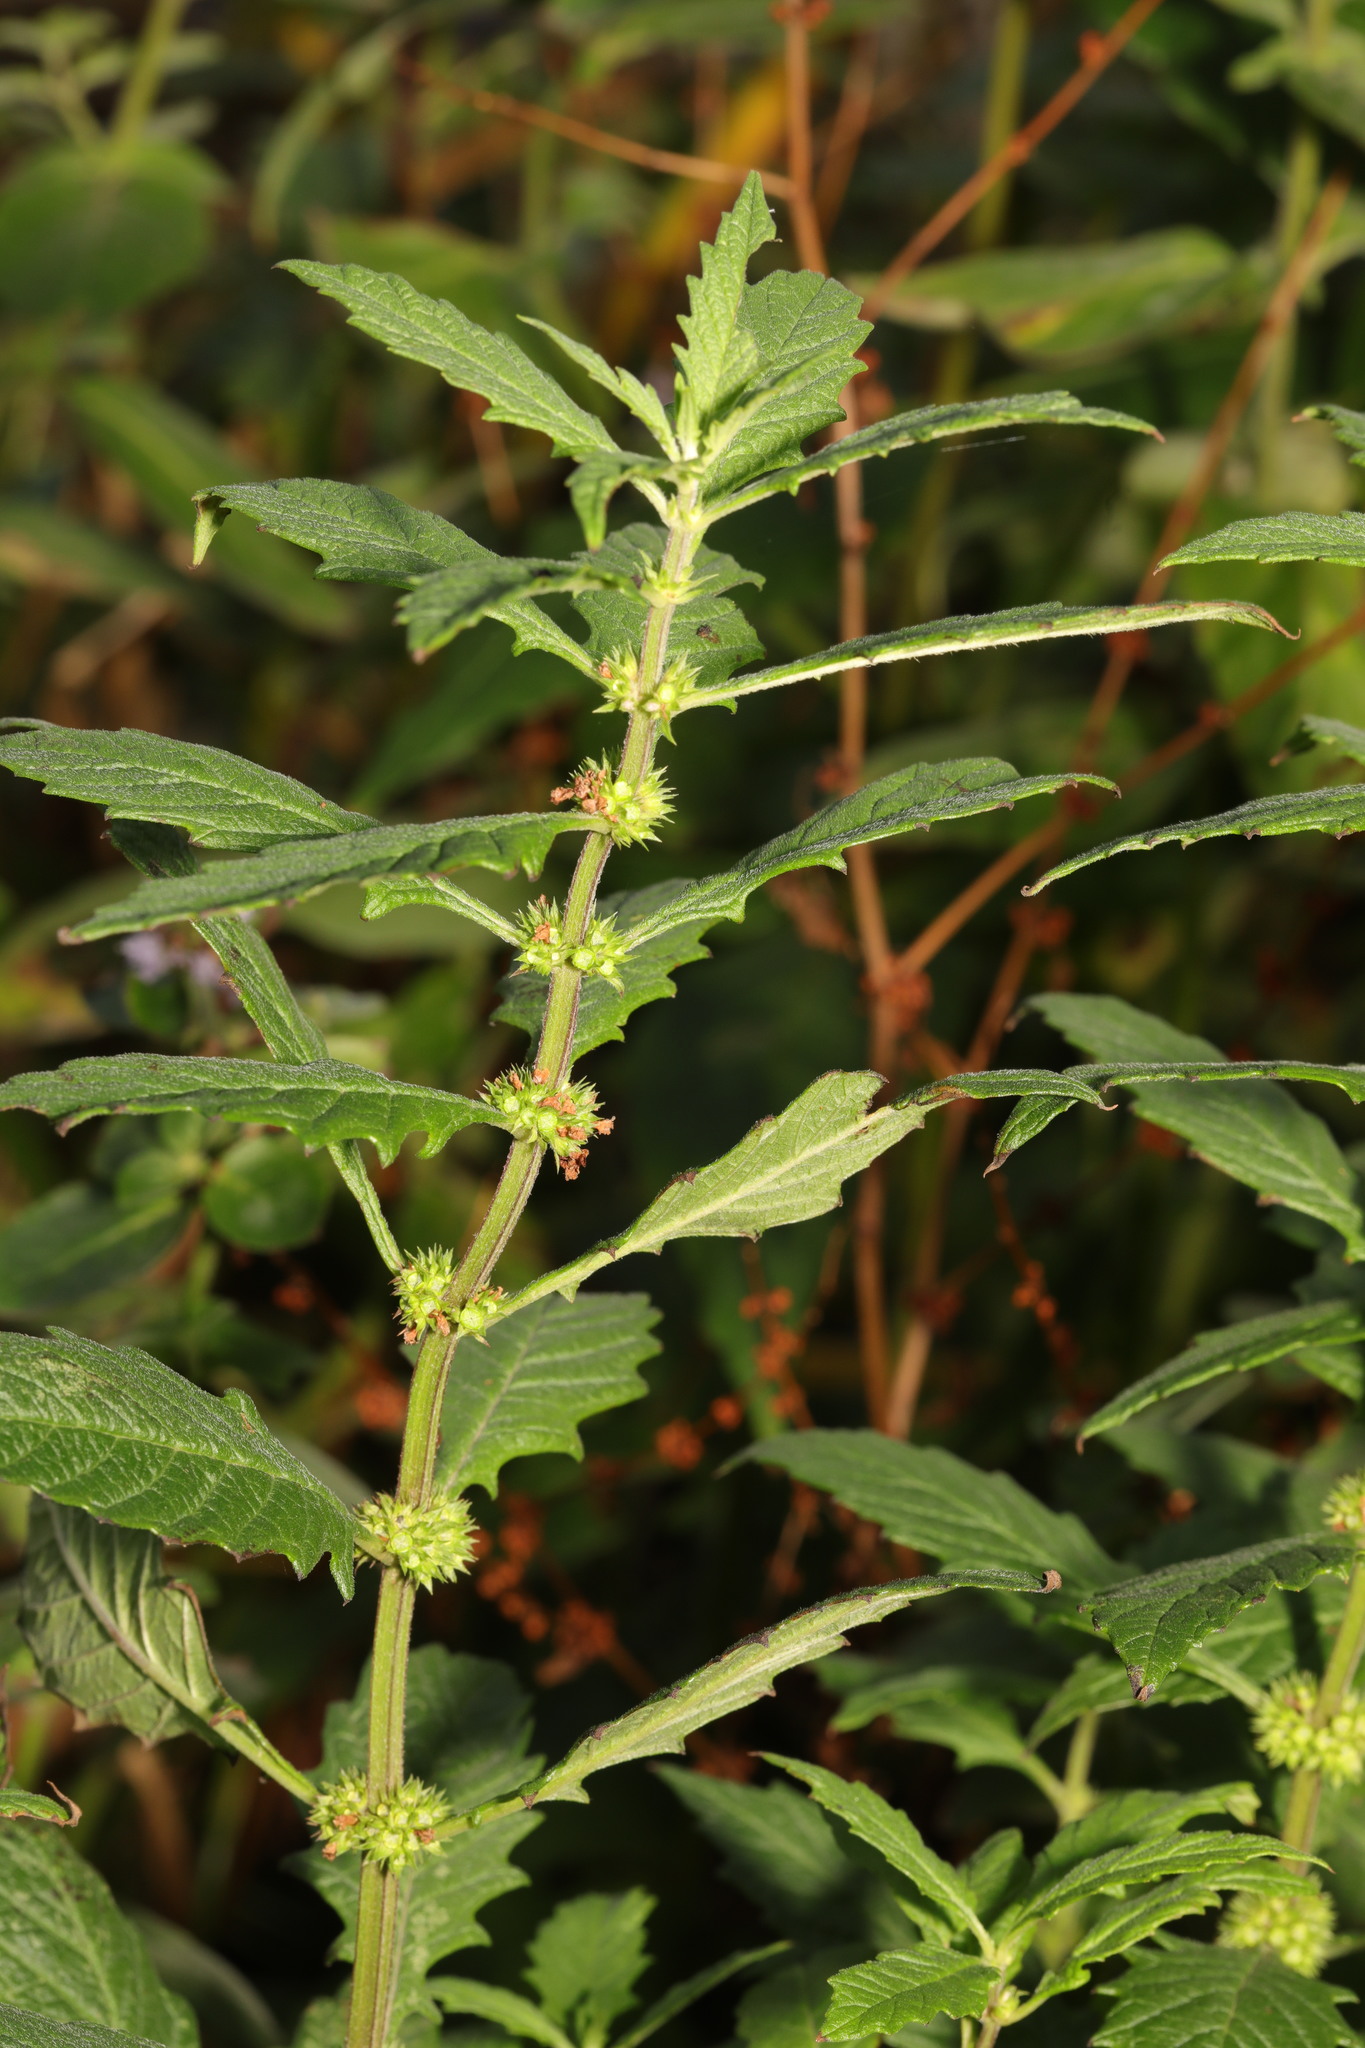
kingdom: Plantae
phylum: Tracheophyta
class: Magnoliopsida
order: Lamiales
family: Lamiaceae
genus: Lycopus
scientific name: Lycopus europaeus
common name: European bugleweed
